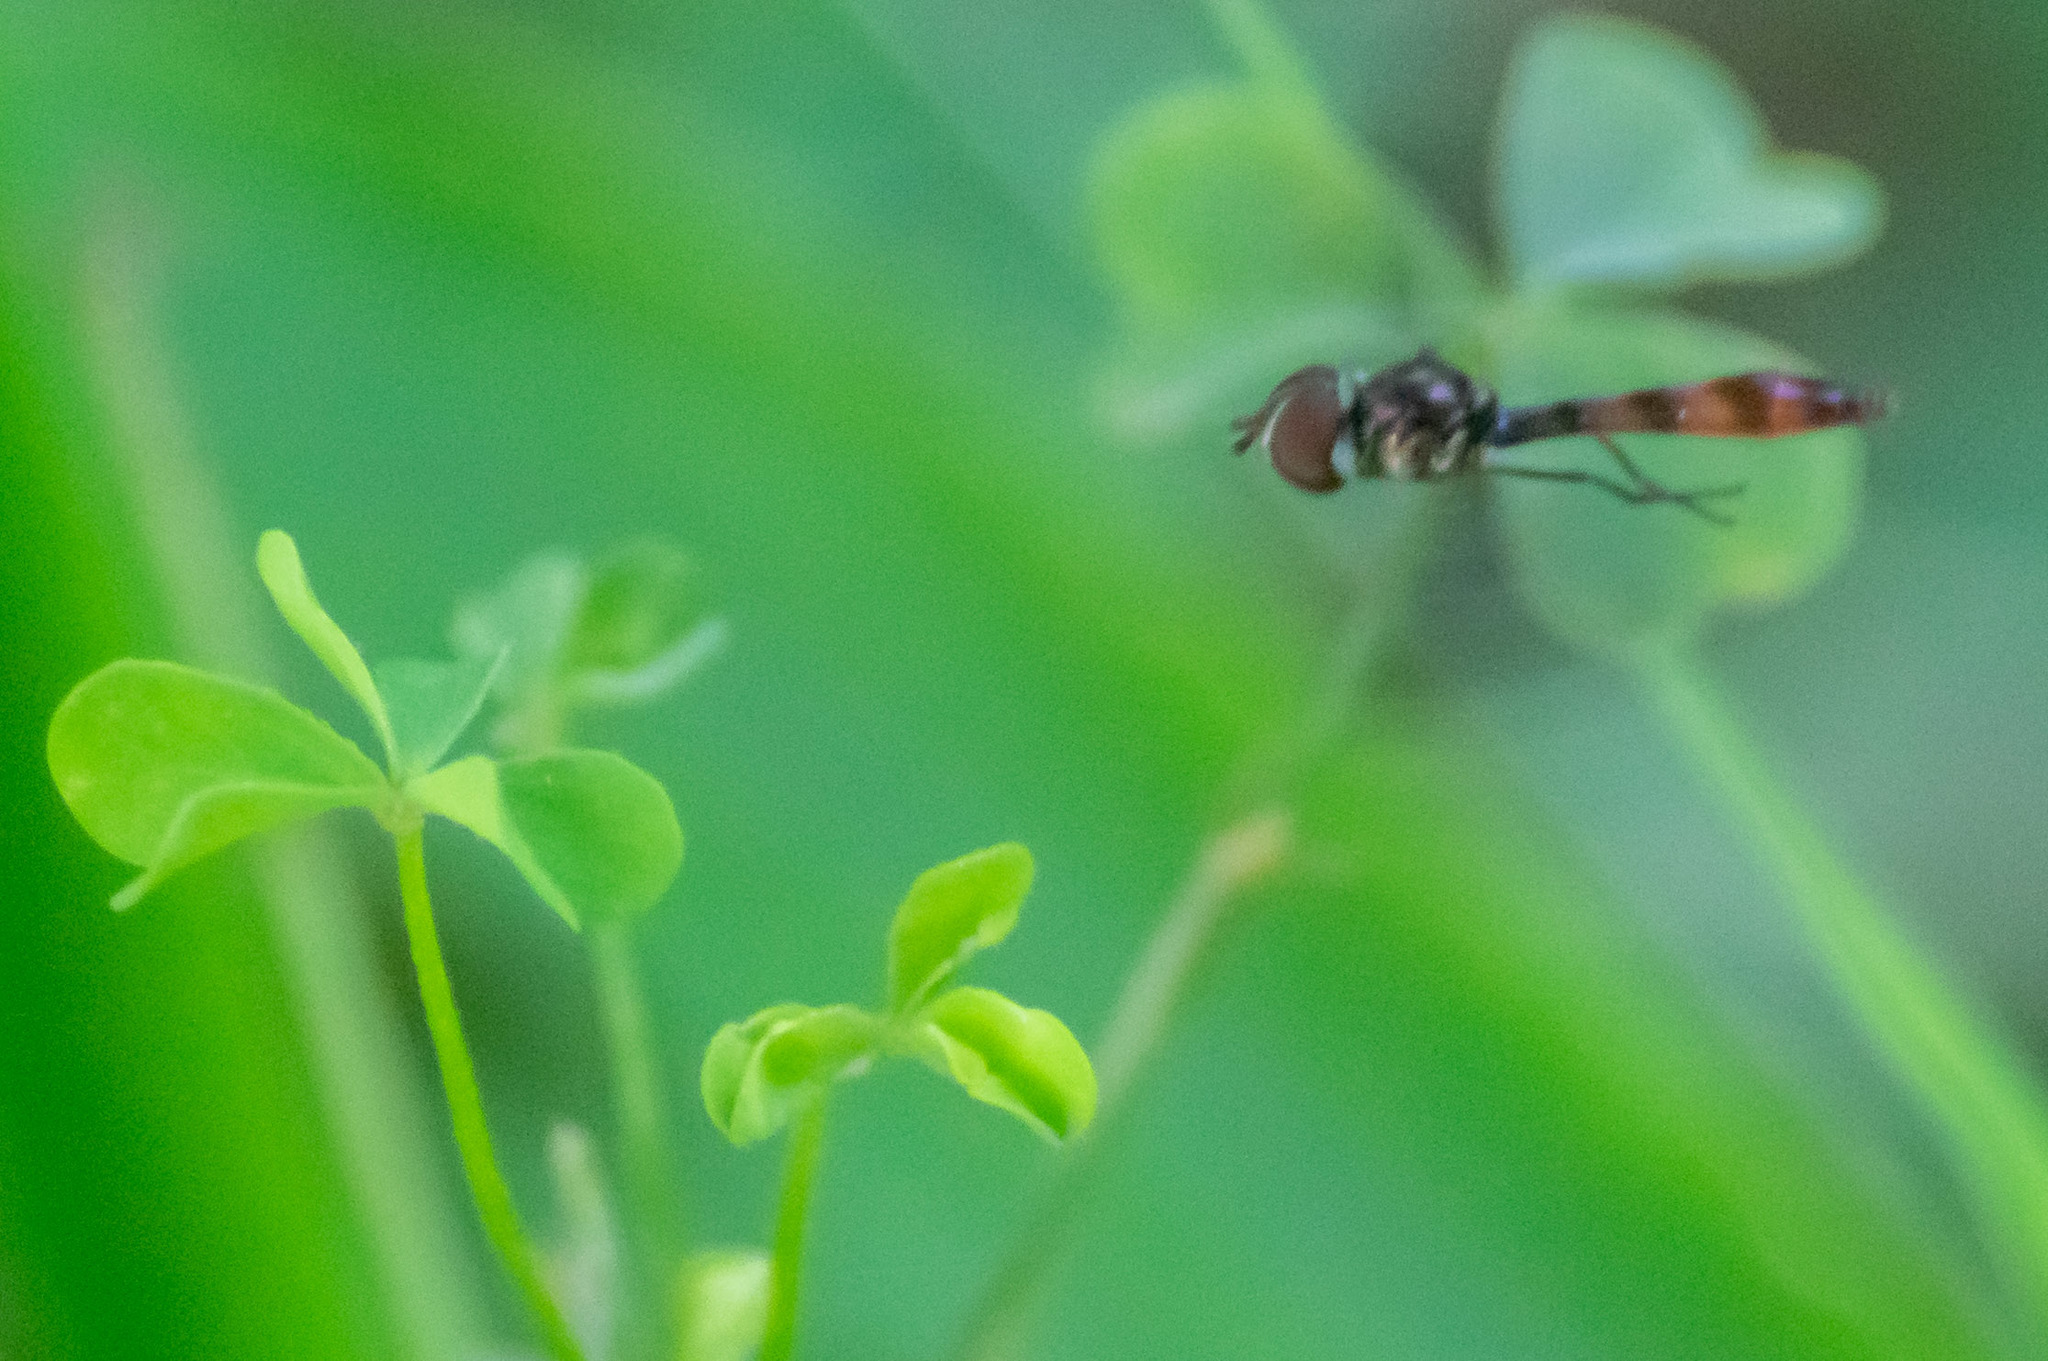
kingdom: Animalia
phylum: Arthropoda
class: Insecta
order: Diptera
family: Syrphidae
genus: Ocyptamus
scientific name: Ocyptamus fuscipennis
